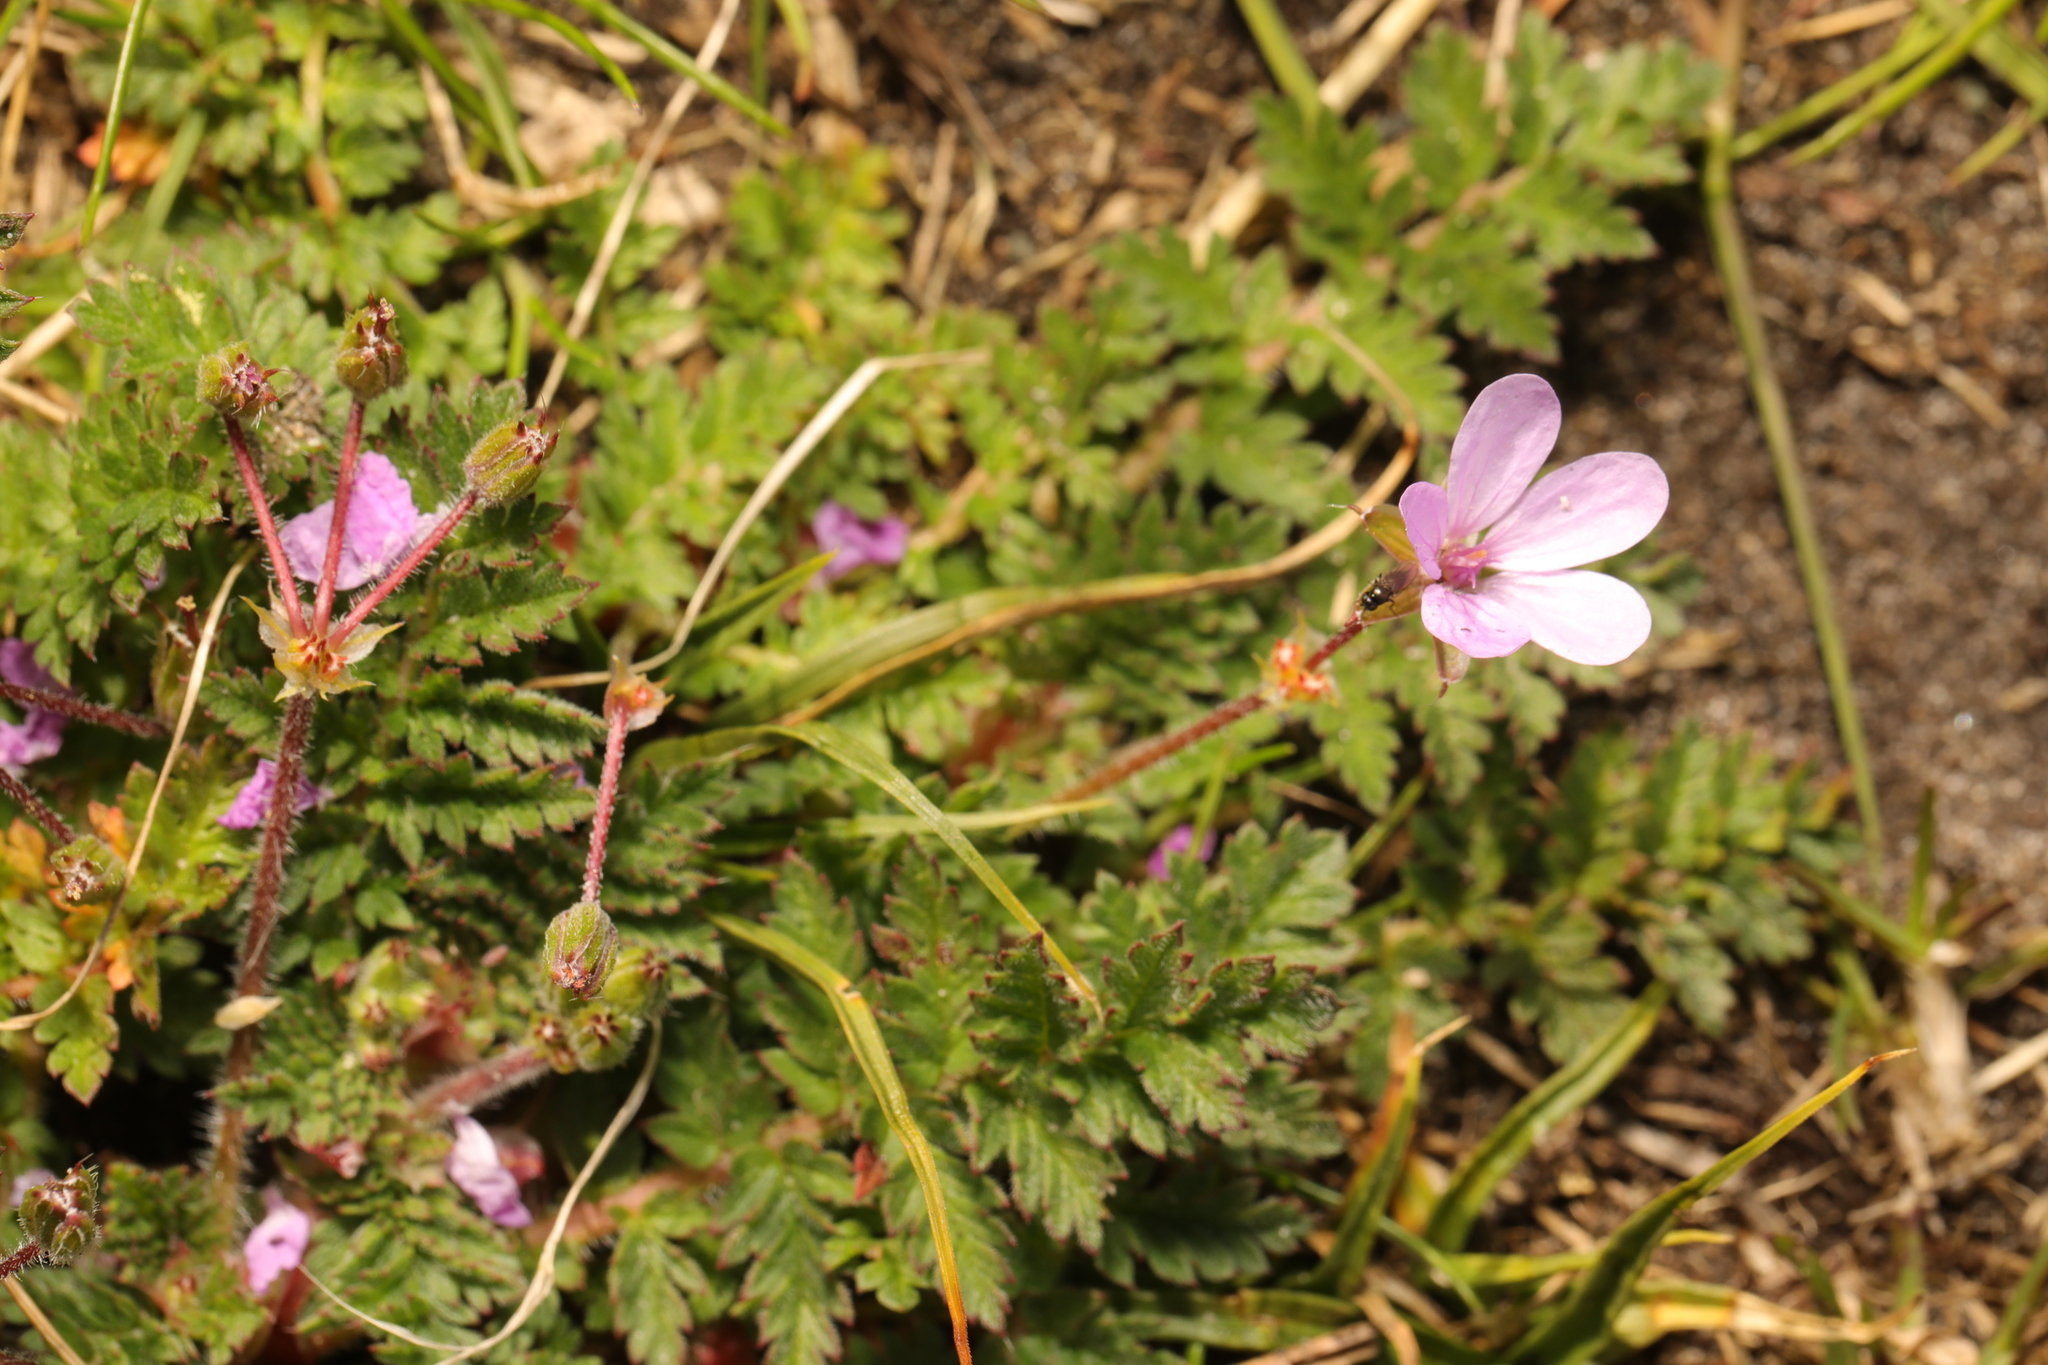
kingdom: Plantae
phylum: Tracheophyta
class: Magnoliopsida
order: Geraniales
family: Geraniaceae
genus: Erodium
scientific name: Erodium cicutarium
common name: Common stork's-bill
